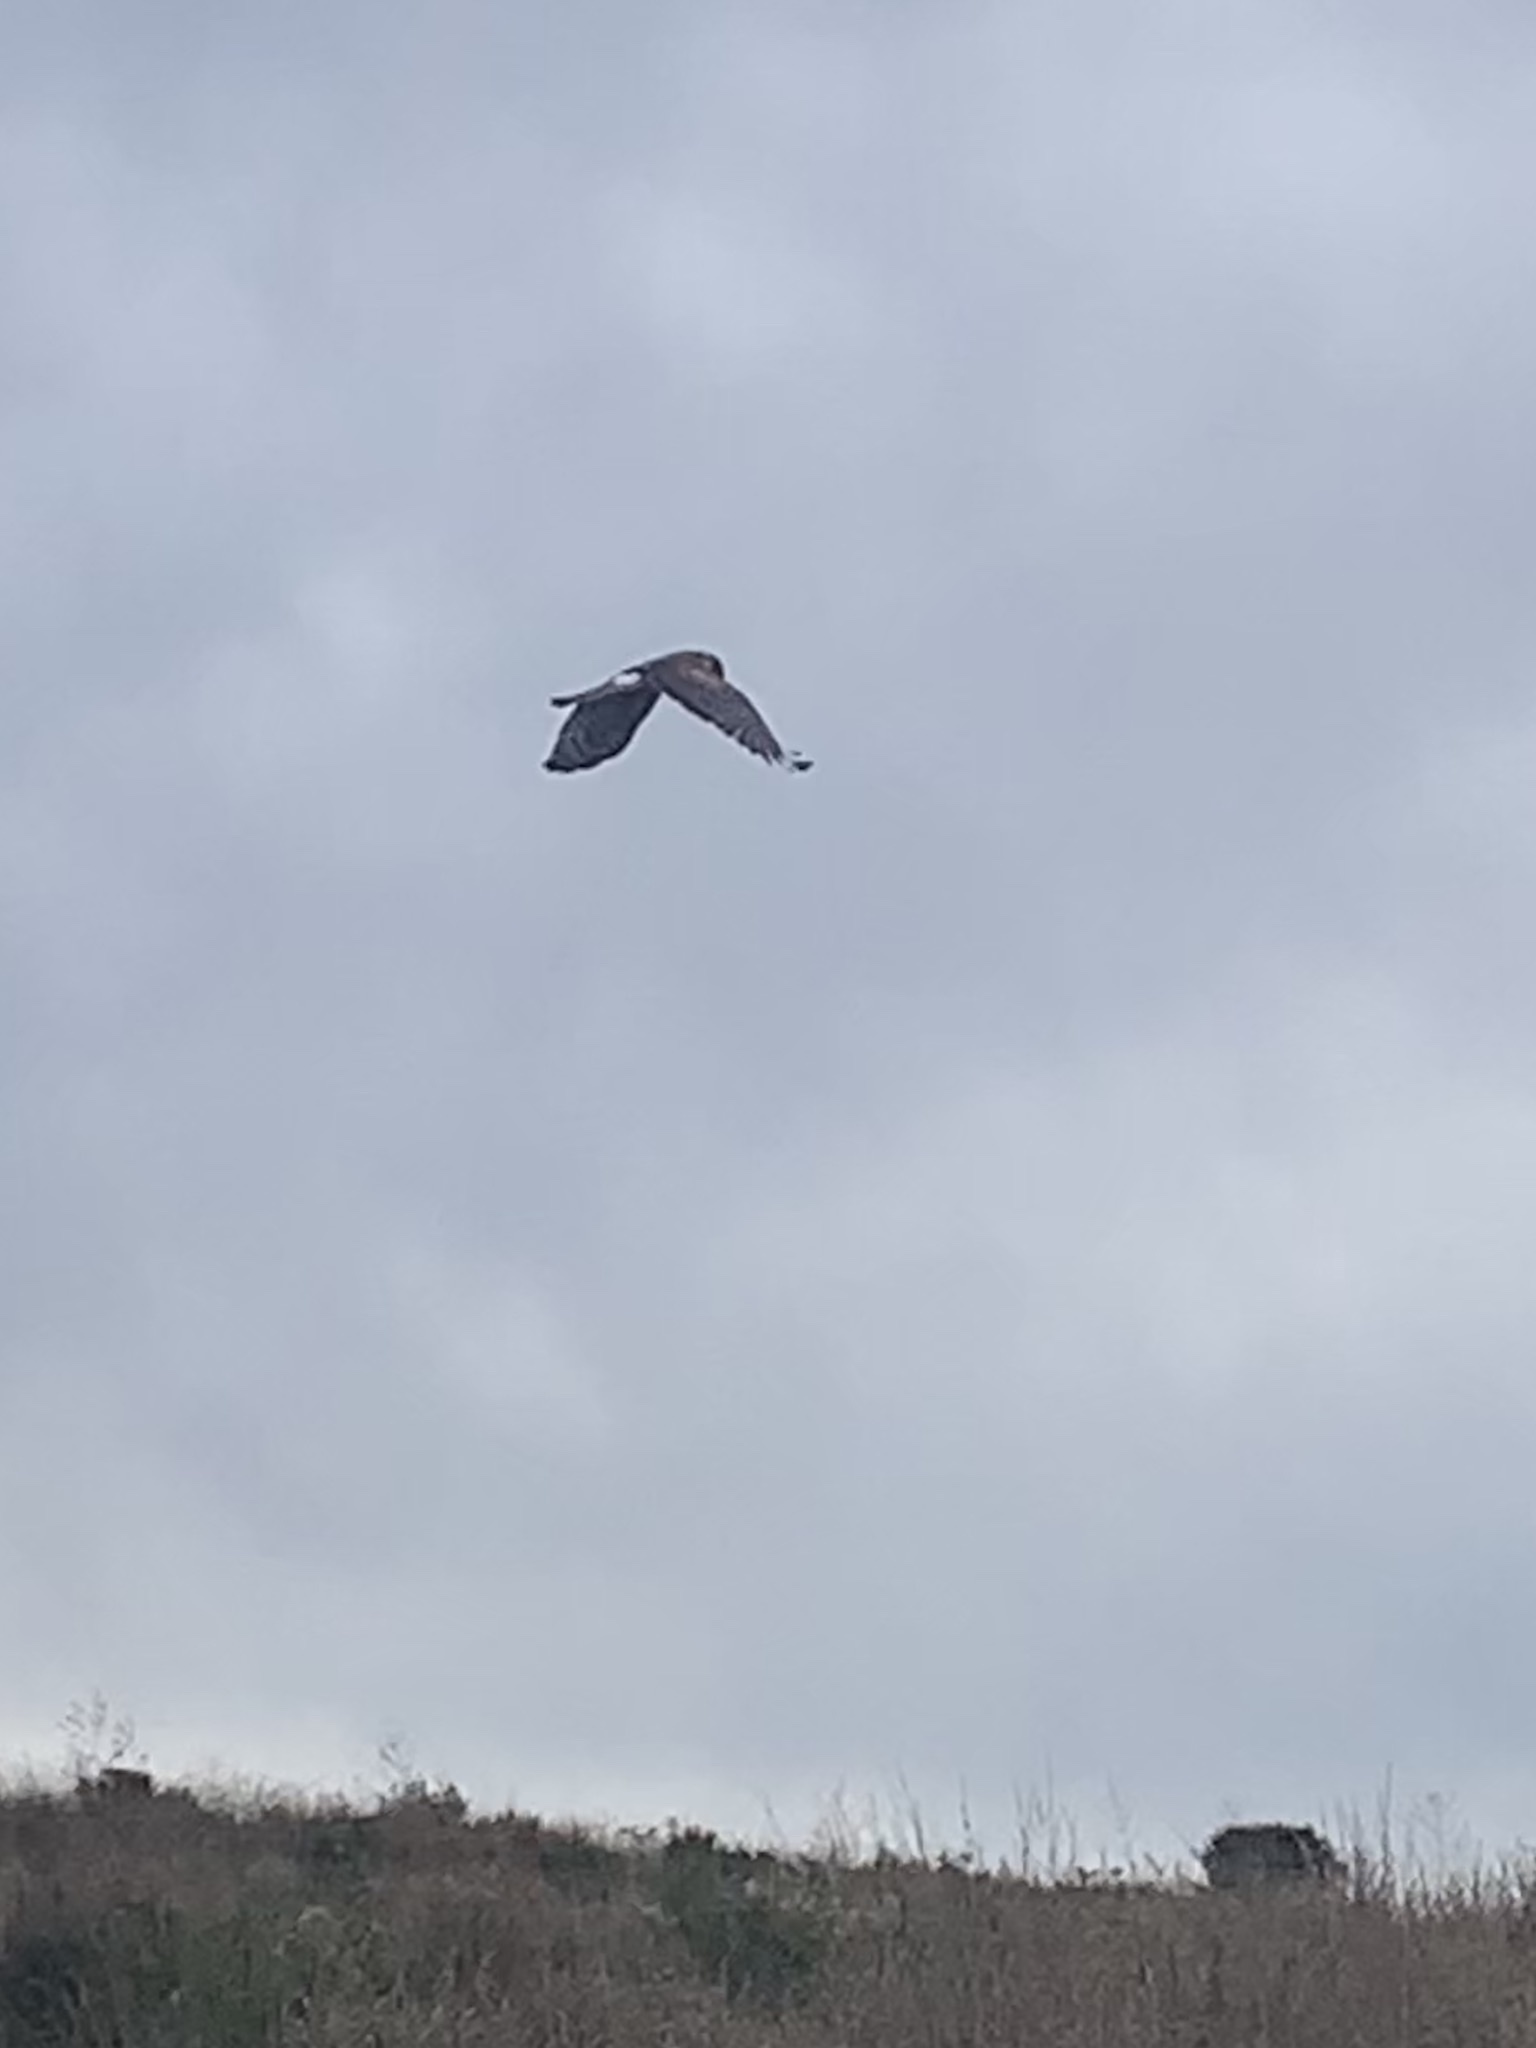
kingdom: Animalia
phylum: Chordata
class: Aves
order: Accipitriformes
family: Accipitridae
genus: Circus
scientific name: Circus cyaneus
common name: Hen harrier
